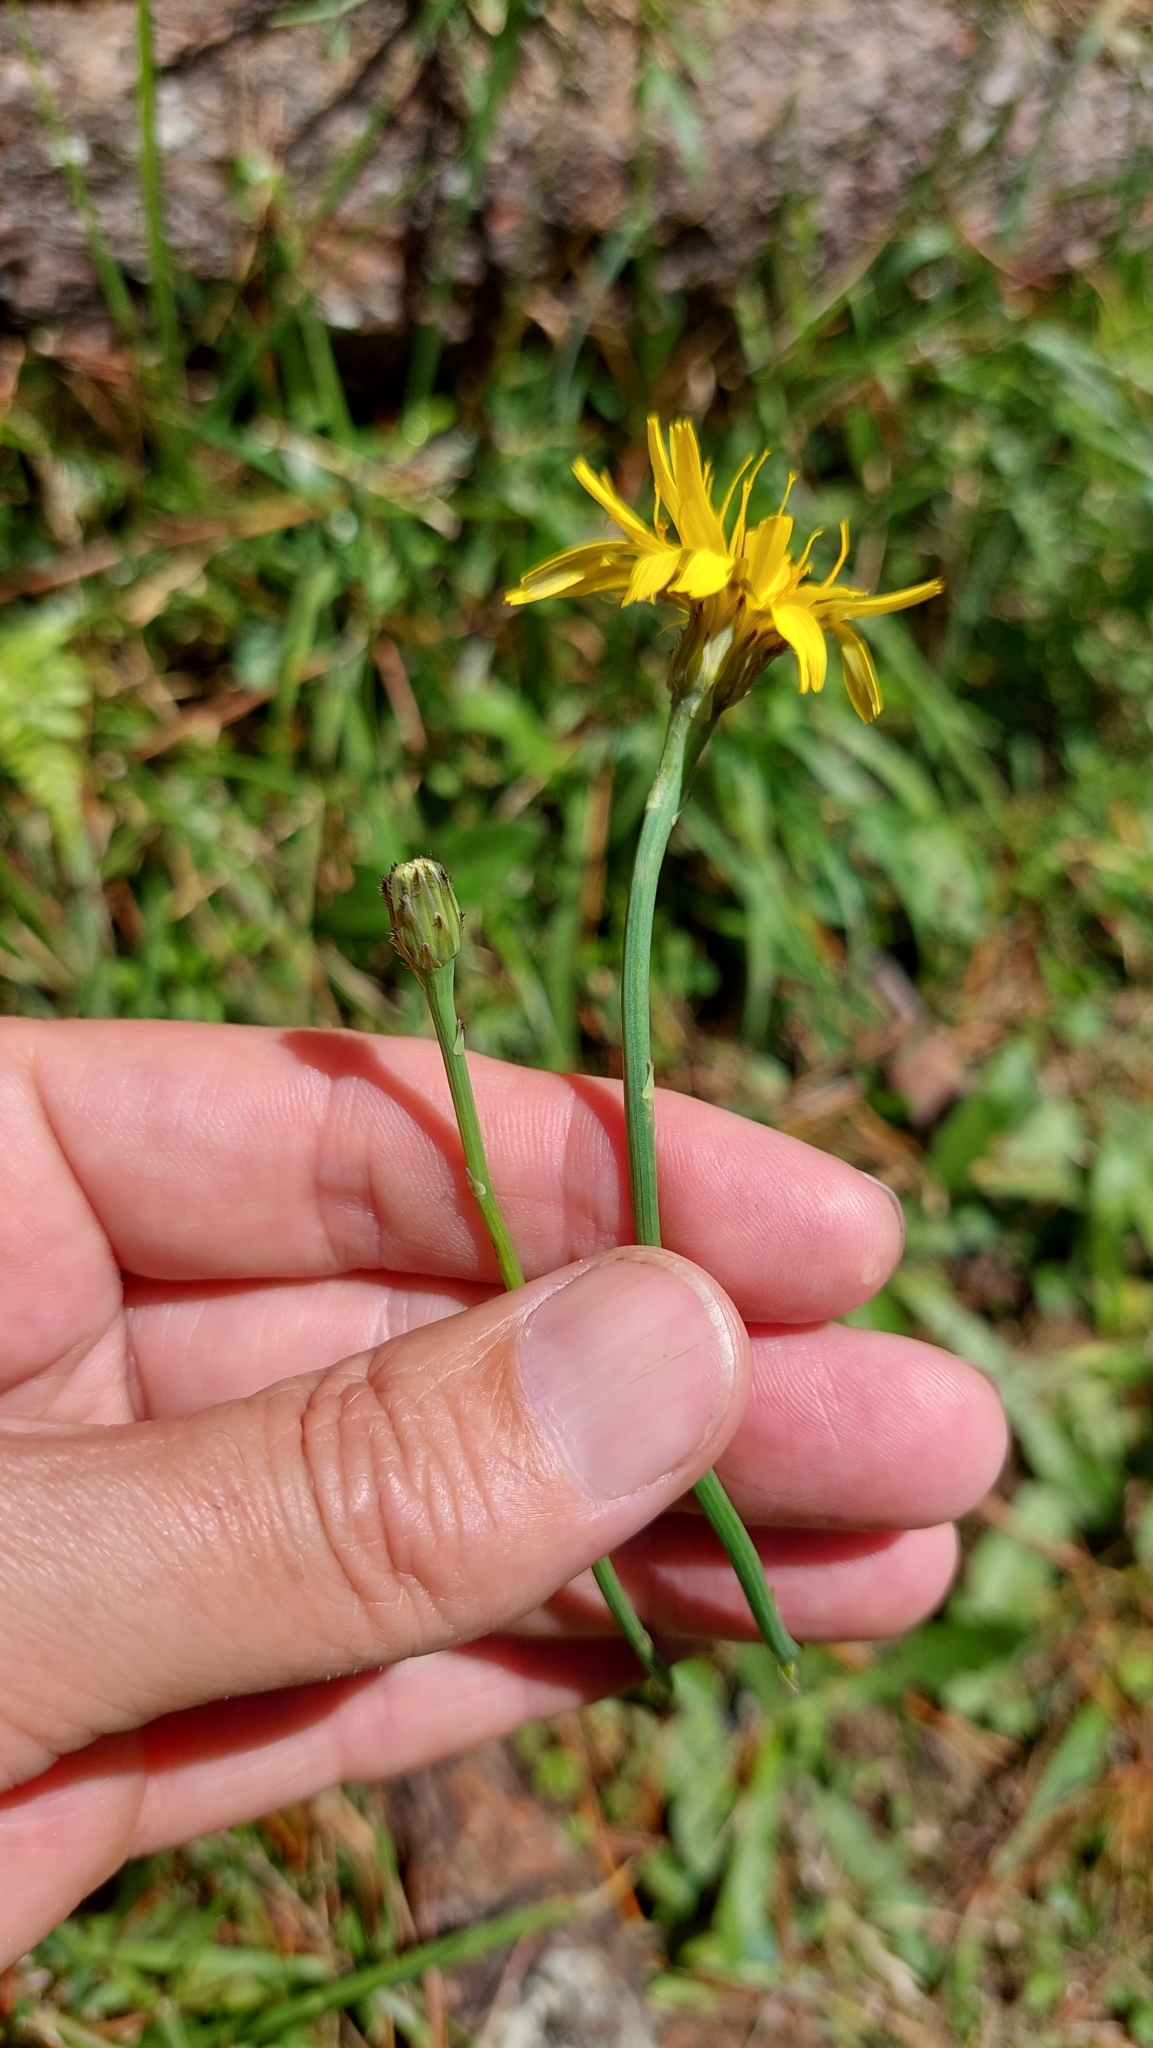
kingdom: Plantae
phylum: Tracheophyta
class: Magnoliopsida
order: Asterales
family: Asteraceae
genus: Hypochaeris
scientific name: Hypochaeris radicata
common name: Flatweed
